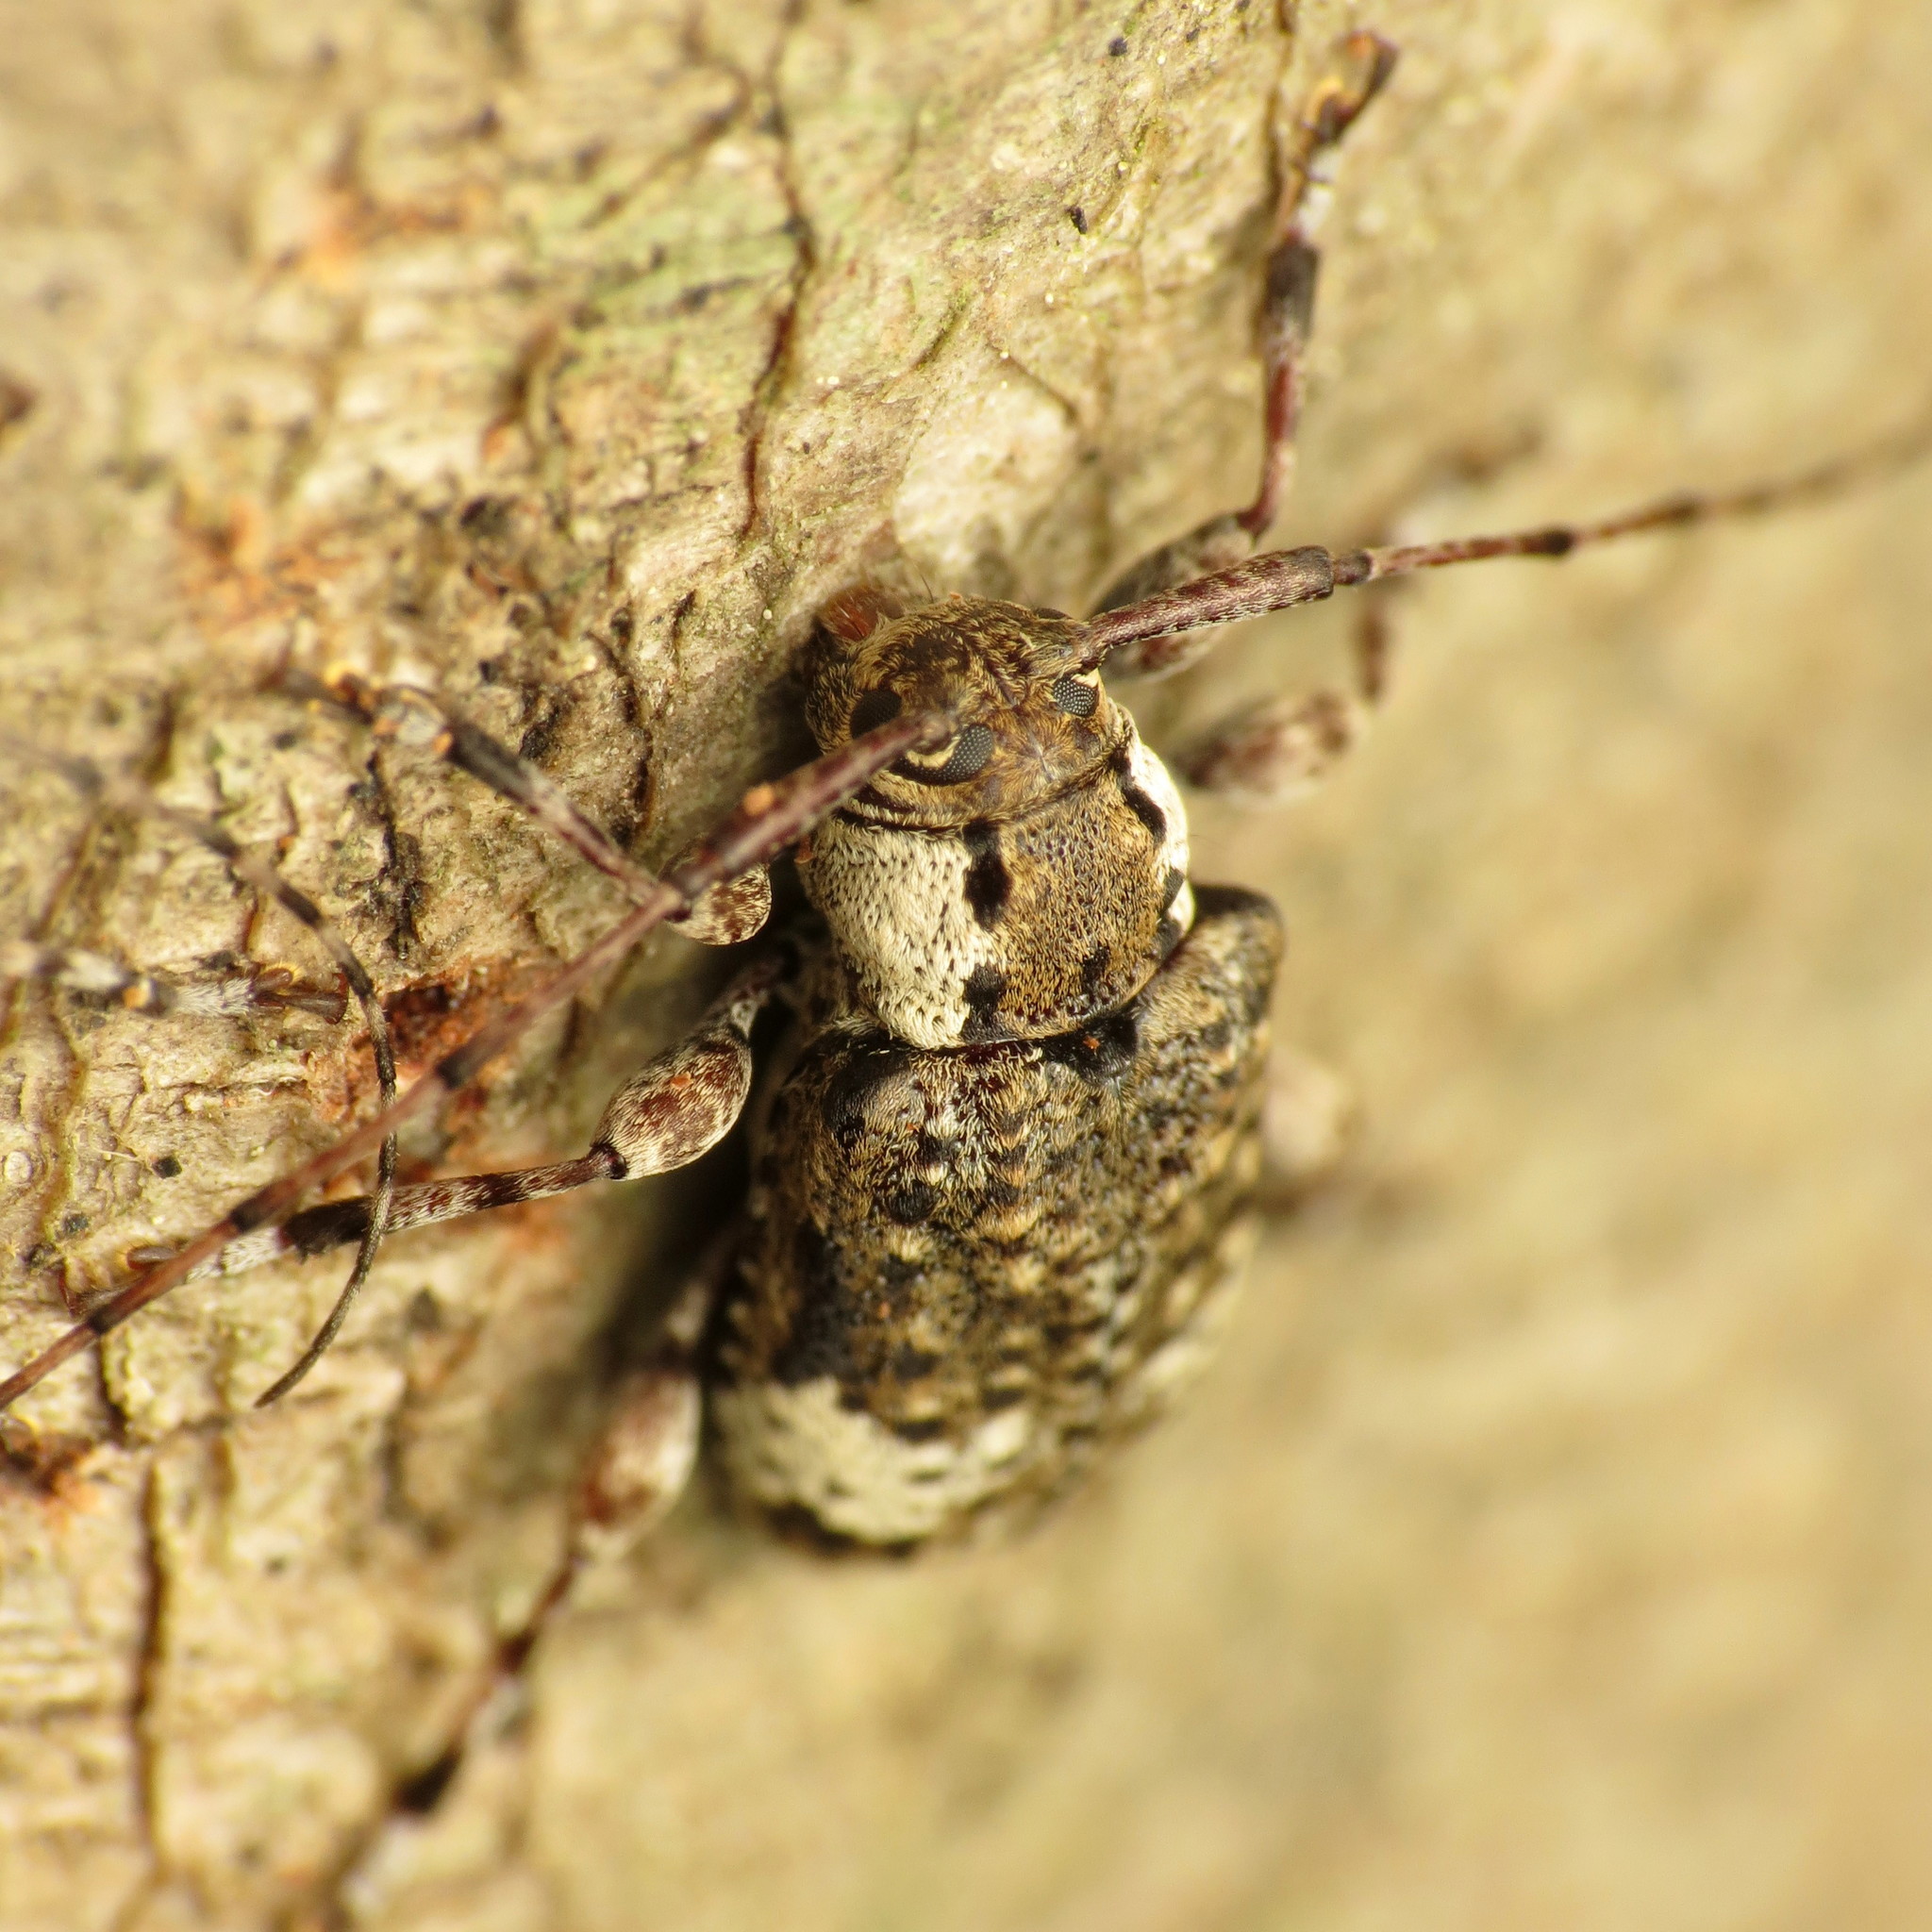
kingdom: Animalia
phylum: Arthropoda
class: Insecta
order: Coleoptera
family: Cerambycidae
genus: Astylopsis
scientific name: Astylopsis macula
